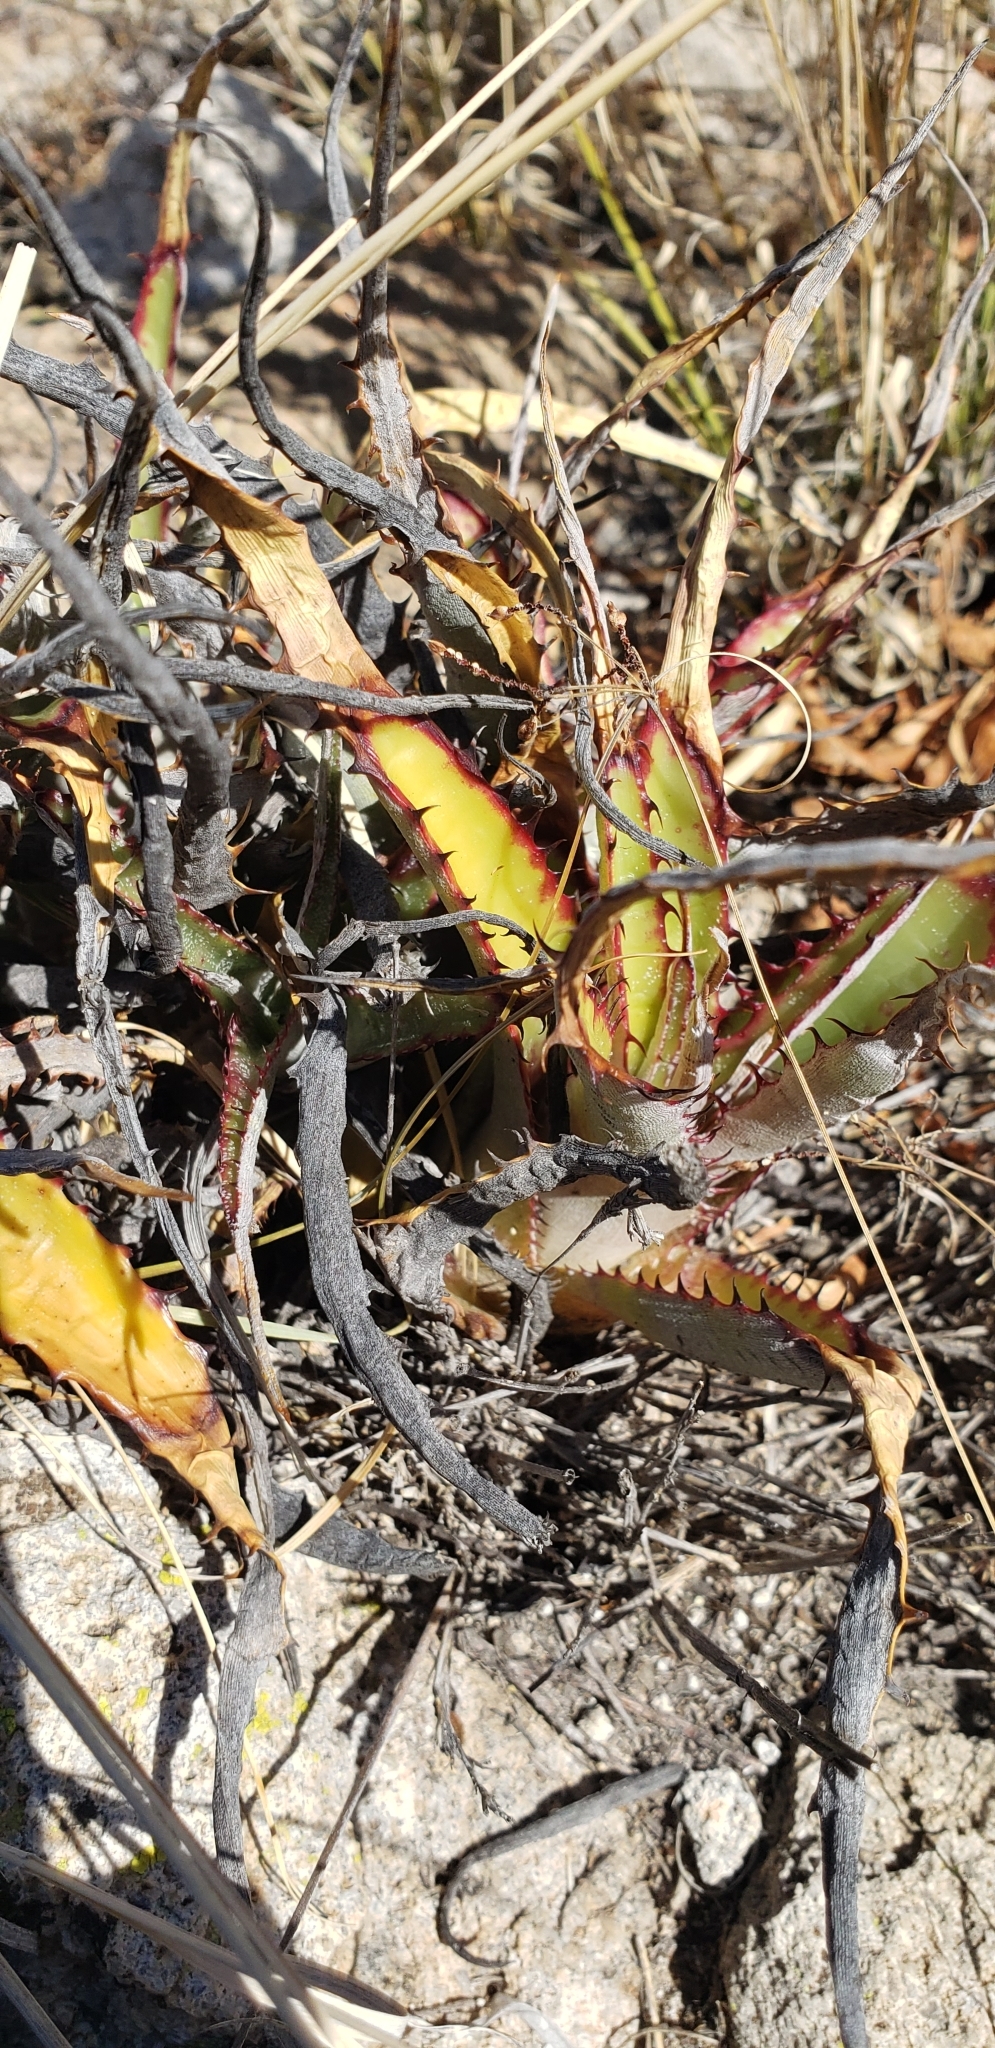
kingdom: Plantae
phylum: Tracheophyta
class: Liliopsida
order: Poales
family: Bromeliaceae
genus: Hechtia
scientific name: Hechtia glomerata
